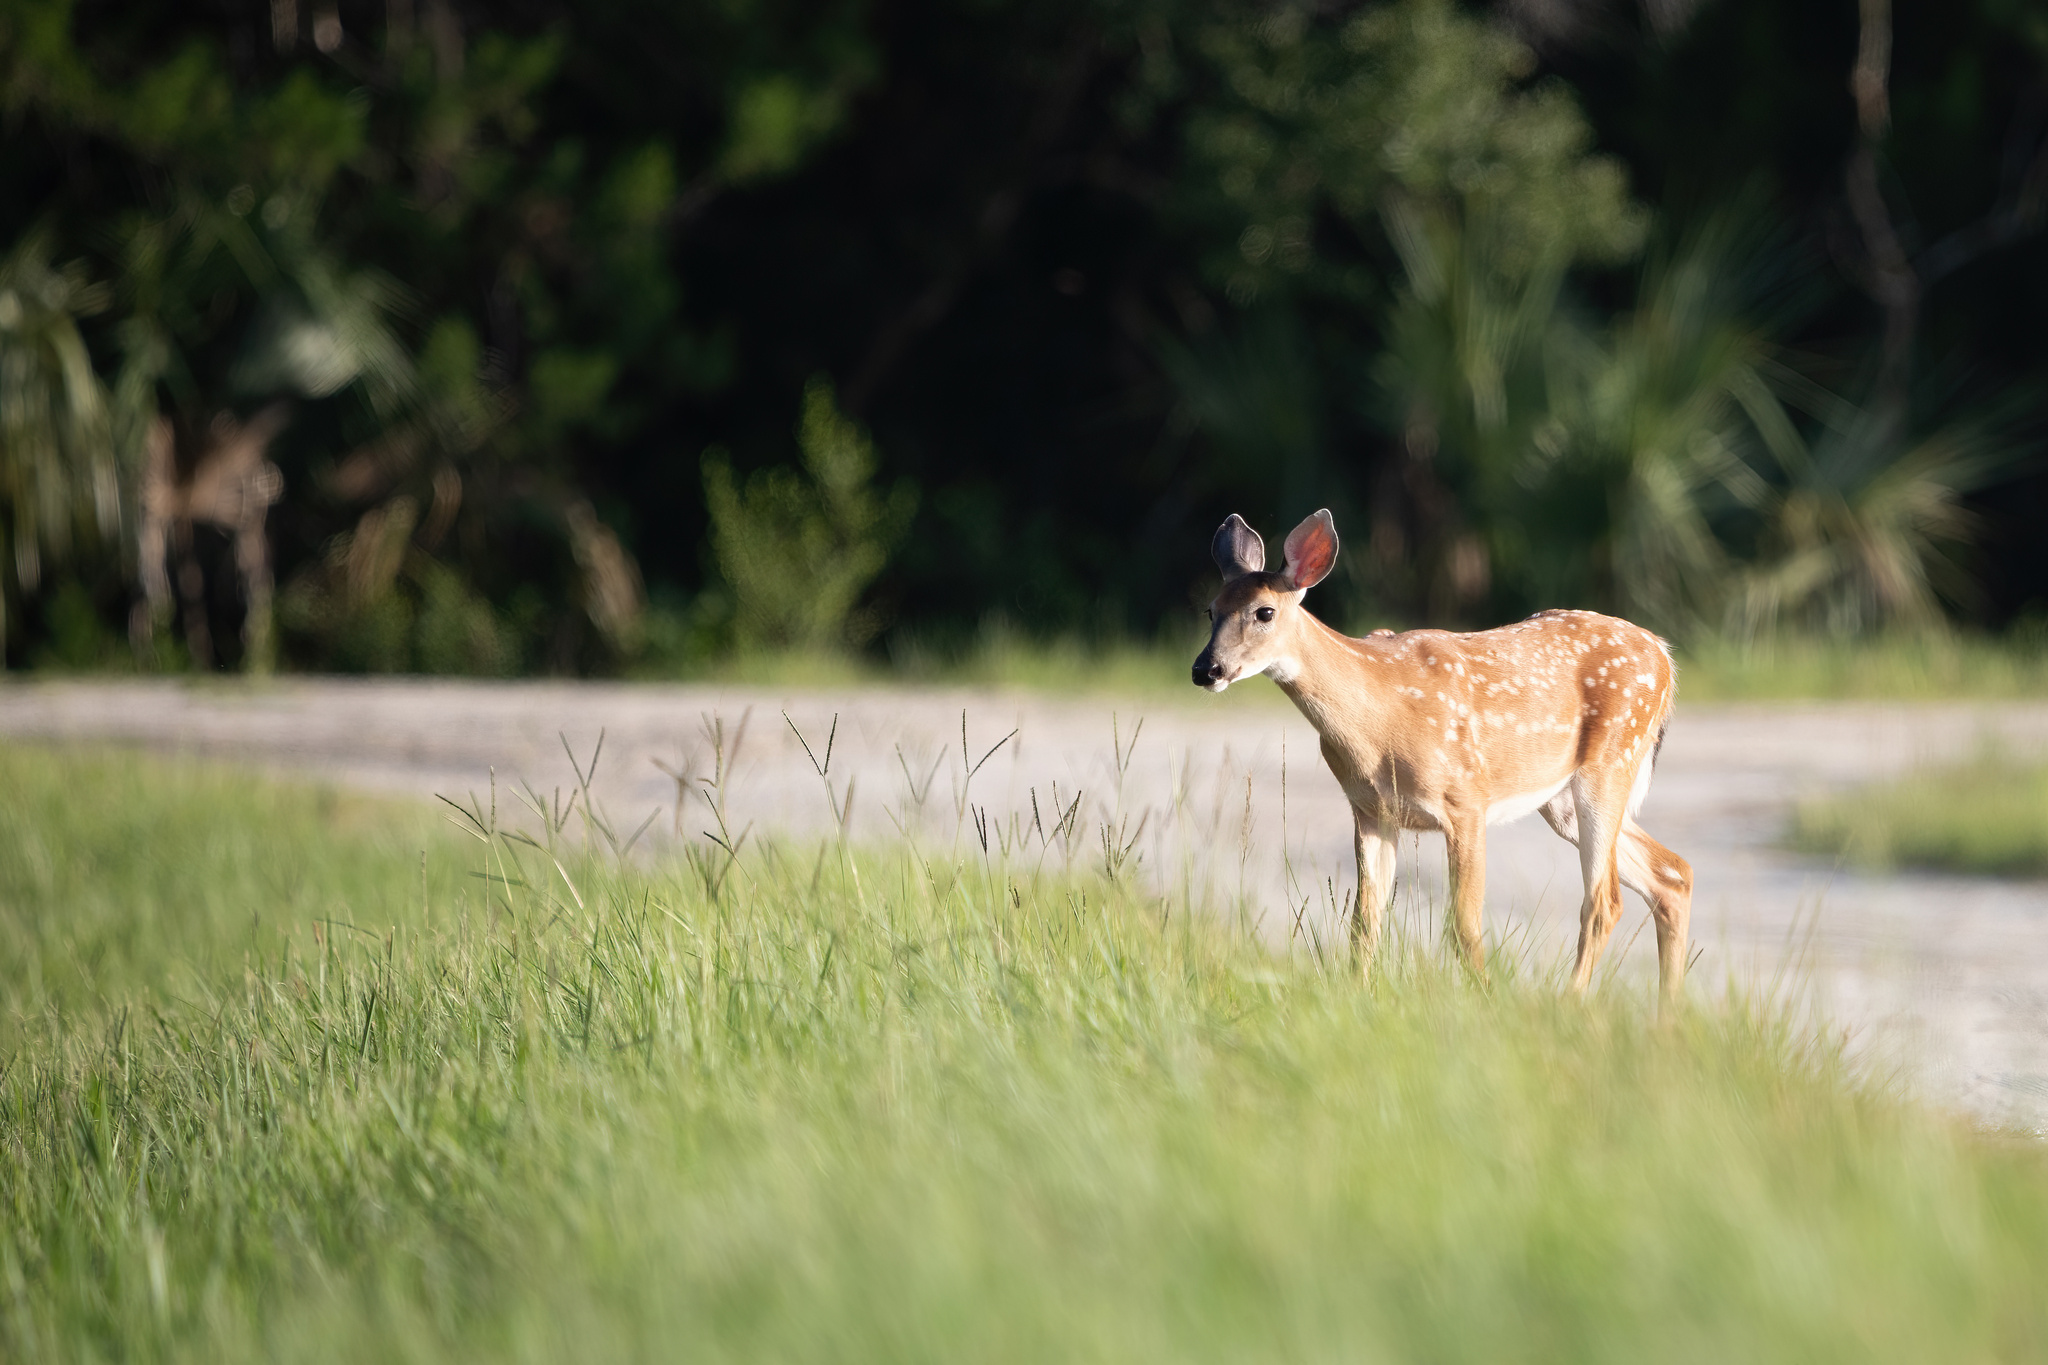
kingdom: Animalia
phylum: Chordata
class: Mammalia
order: Artiodactyla
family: Cervidae
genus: Odocoileus
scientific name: Odocoileus virginianus
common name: White-tailed deer
